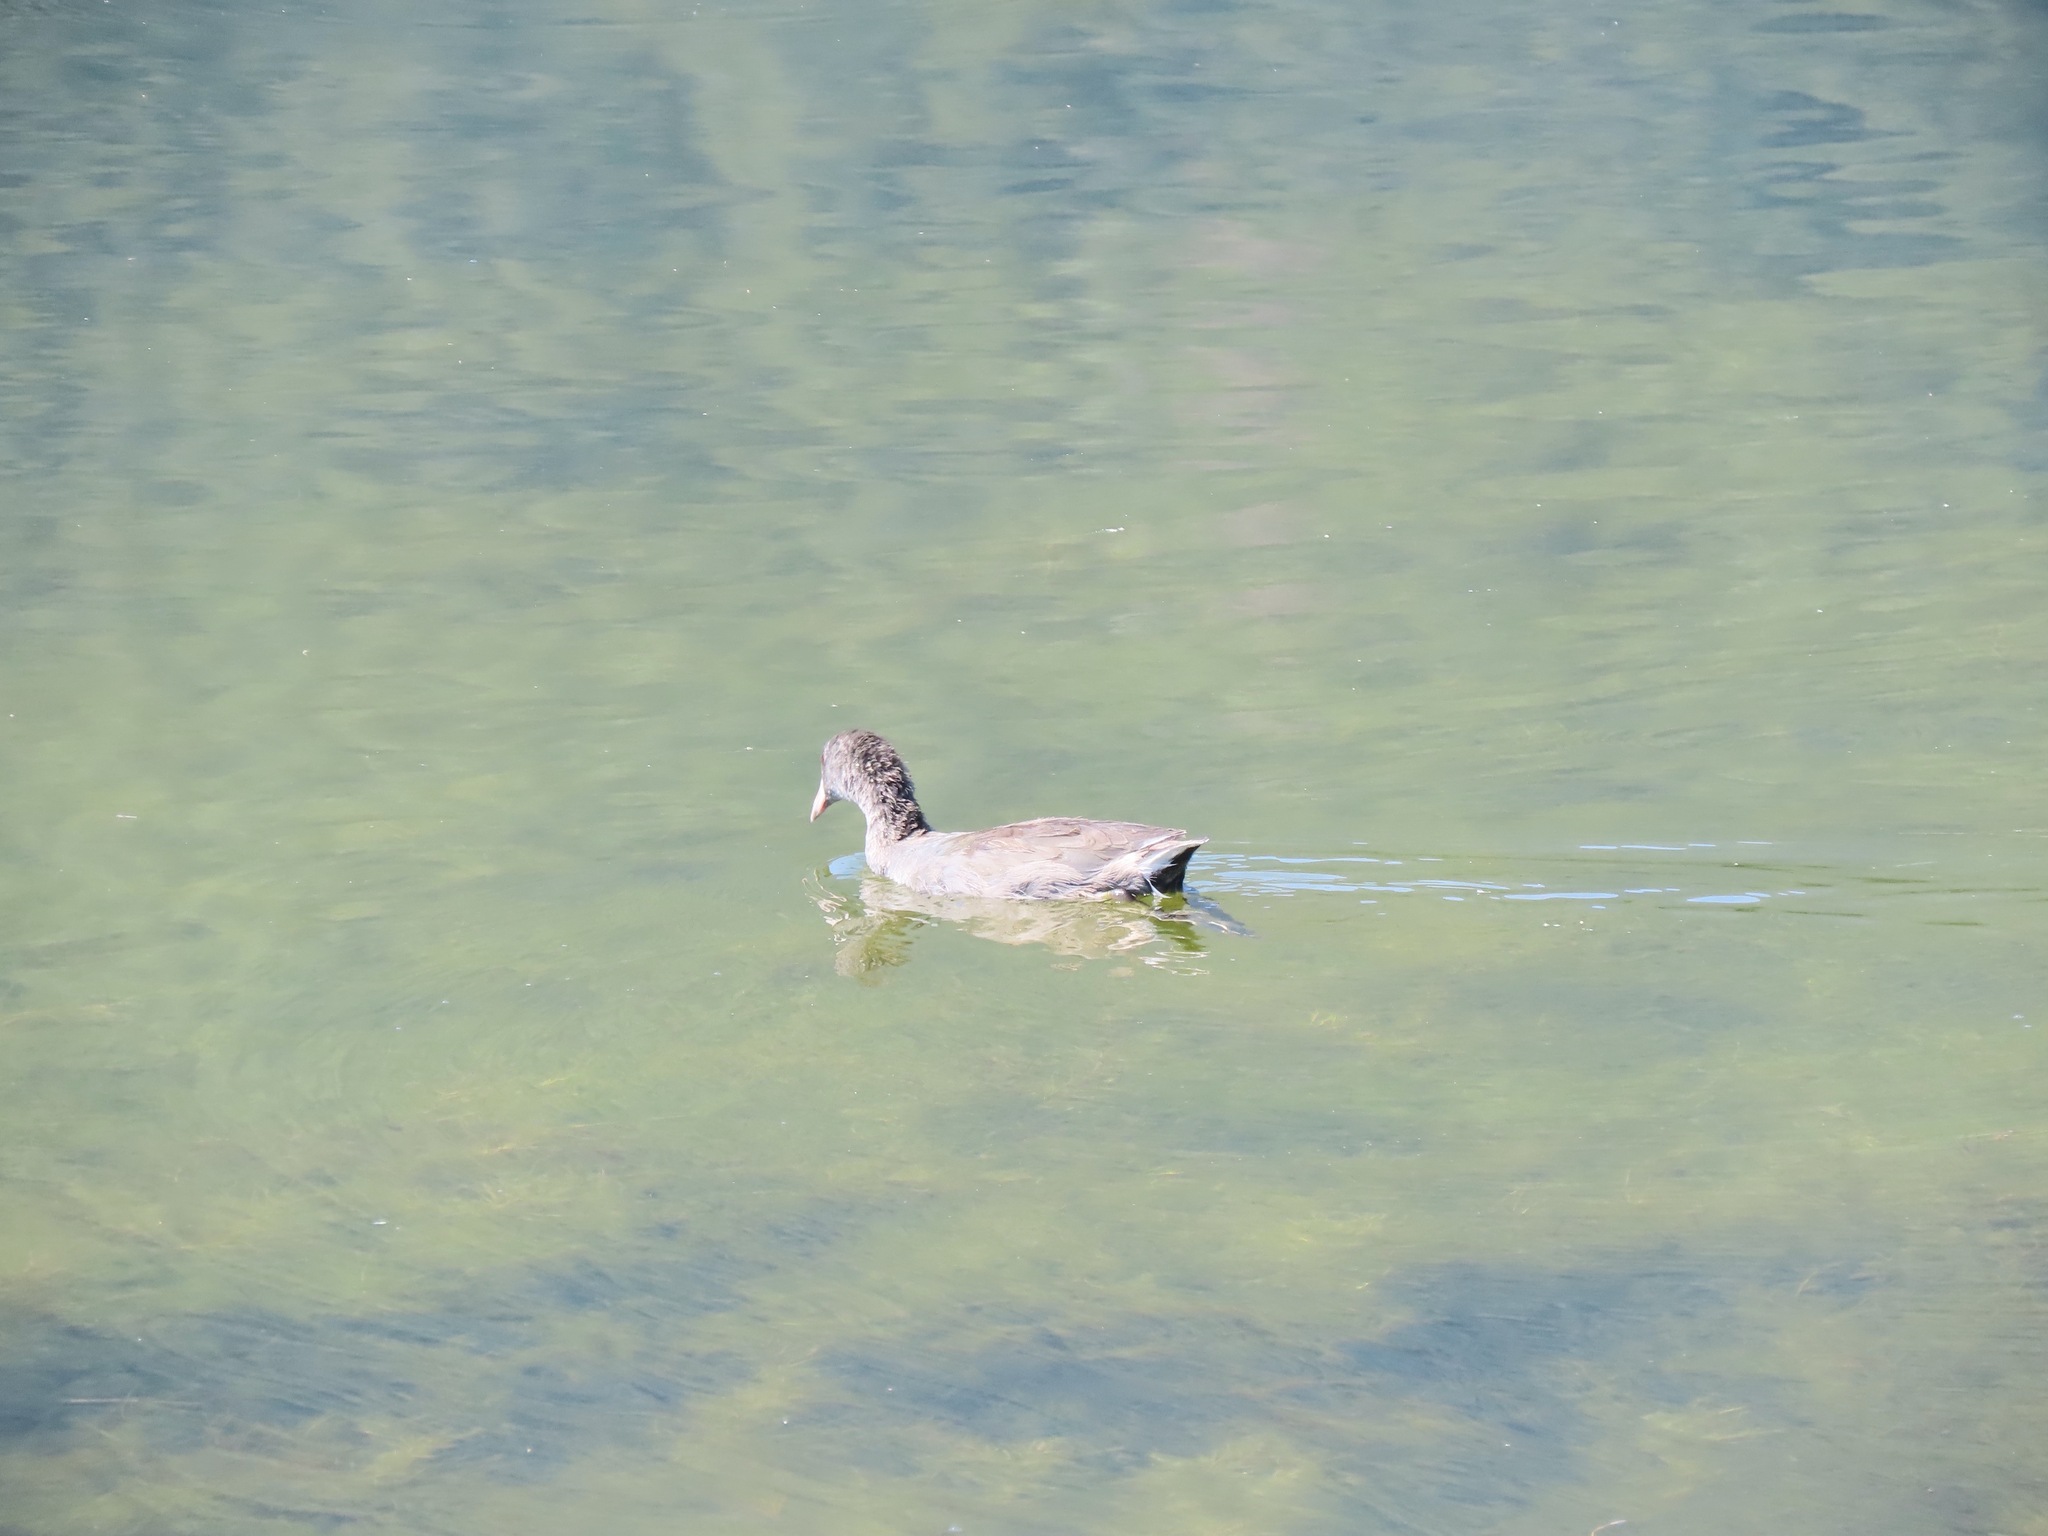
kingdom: Animalia
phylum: Chordata
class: Aves
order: Gruiformes
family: Rallidae
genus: Fulica
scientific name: Fulica americana
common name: American coot
